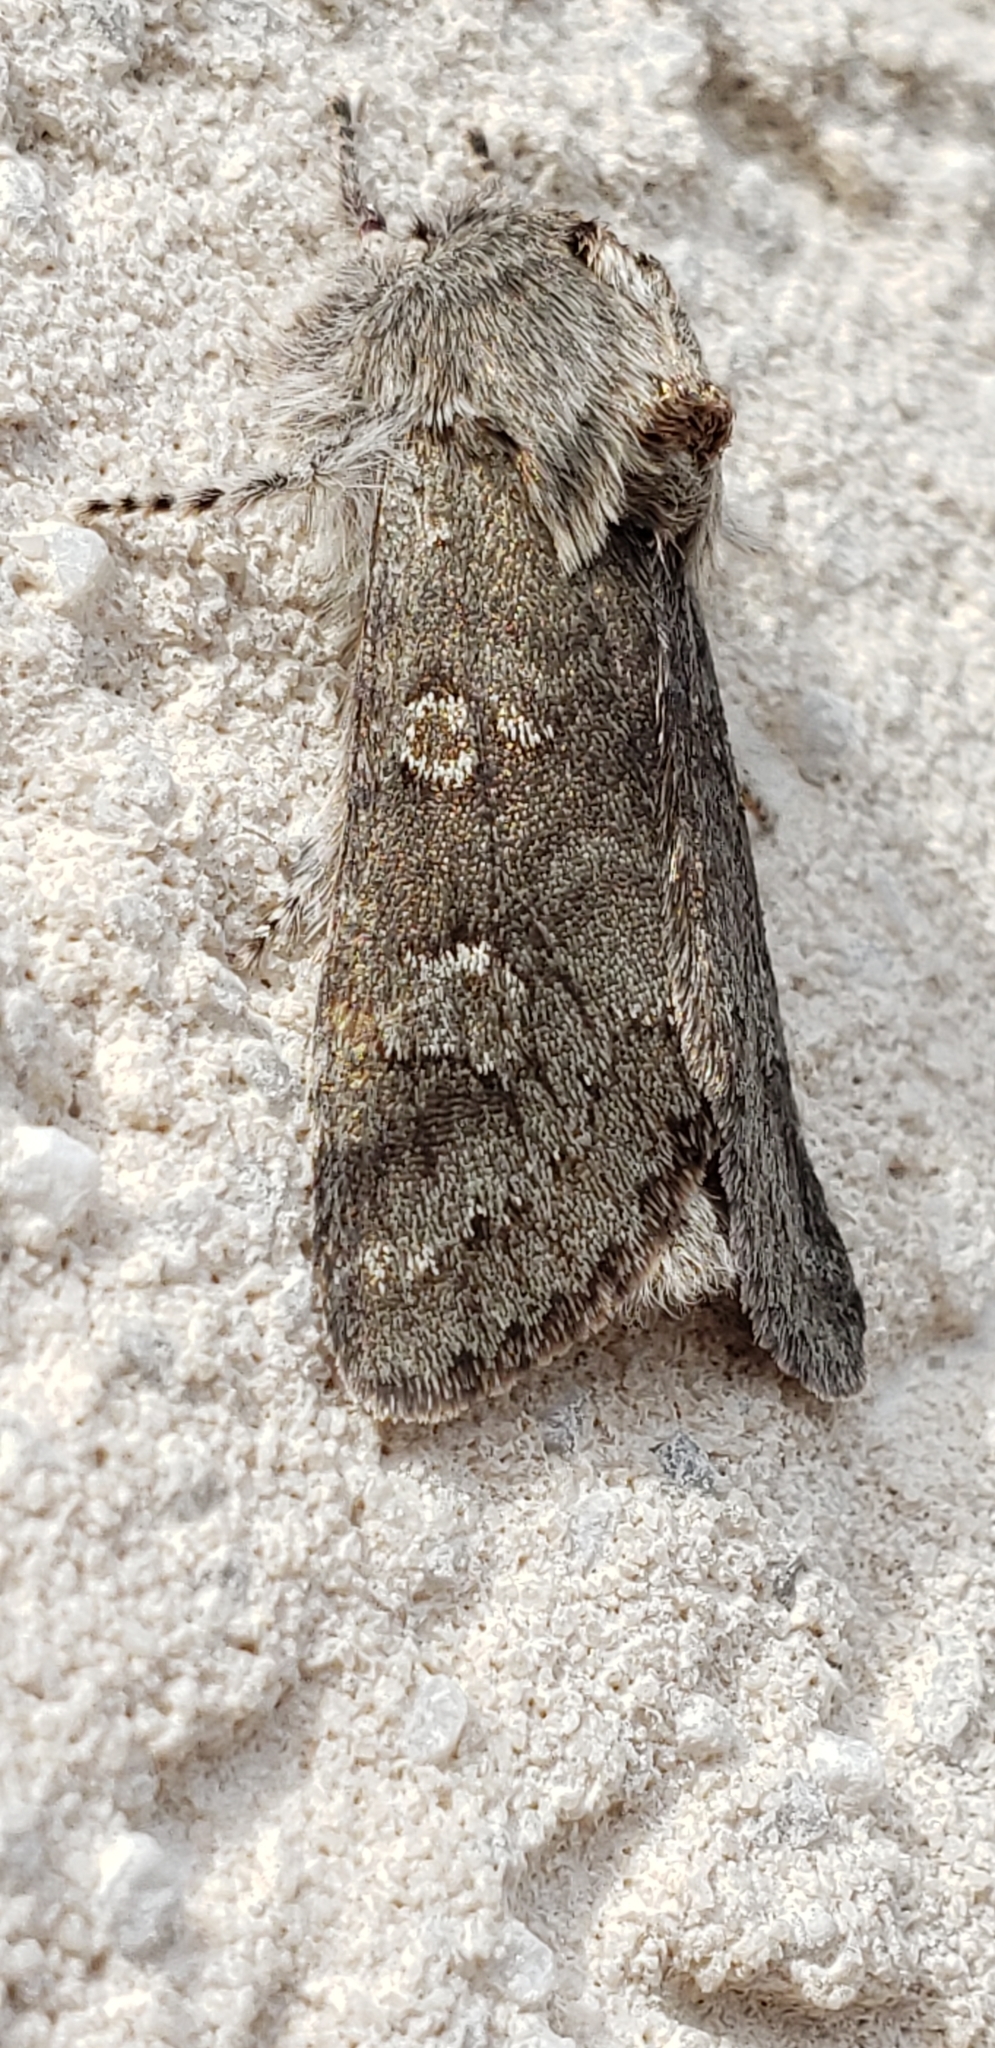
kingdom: Animalia
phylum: Arthropoda
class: Insecta
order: Lepidoptera
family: Noctuidae
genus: Psaphida
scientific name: Psaphida rolandi
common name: Roland's sallow
